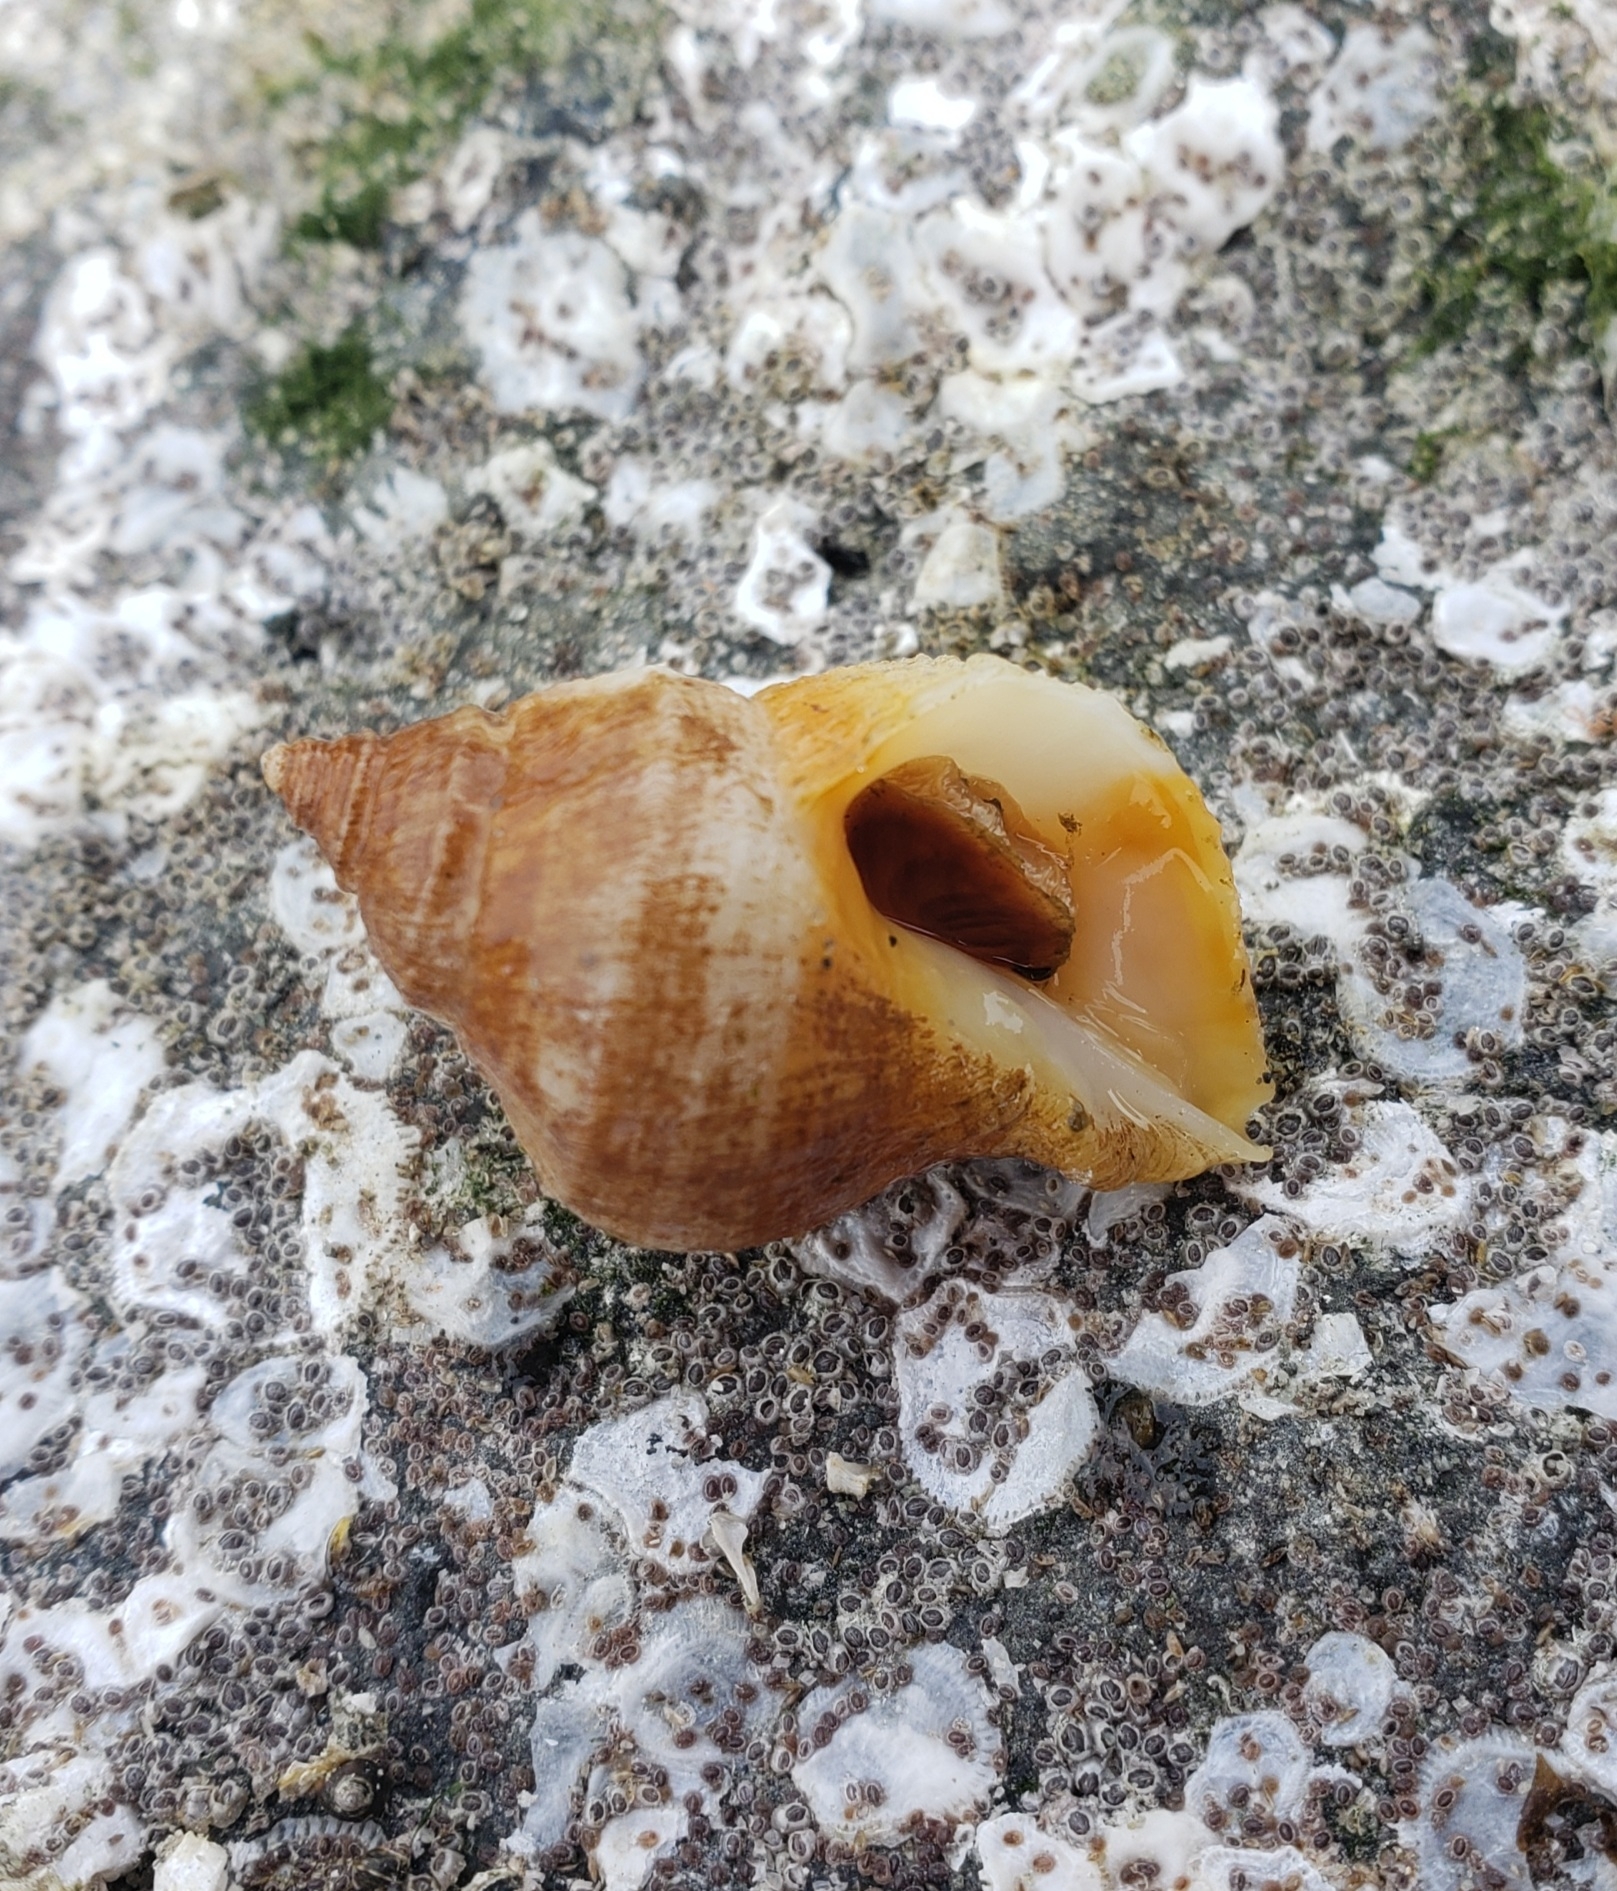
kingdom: Animalia
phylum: Mollusca
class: Gastropoda
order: Neogastropoda
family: Muricidae
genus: Nucella
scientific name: Nucella lamellosa
